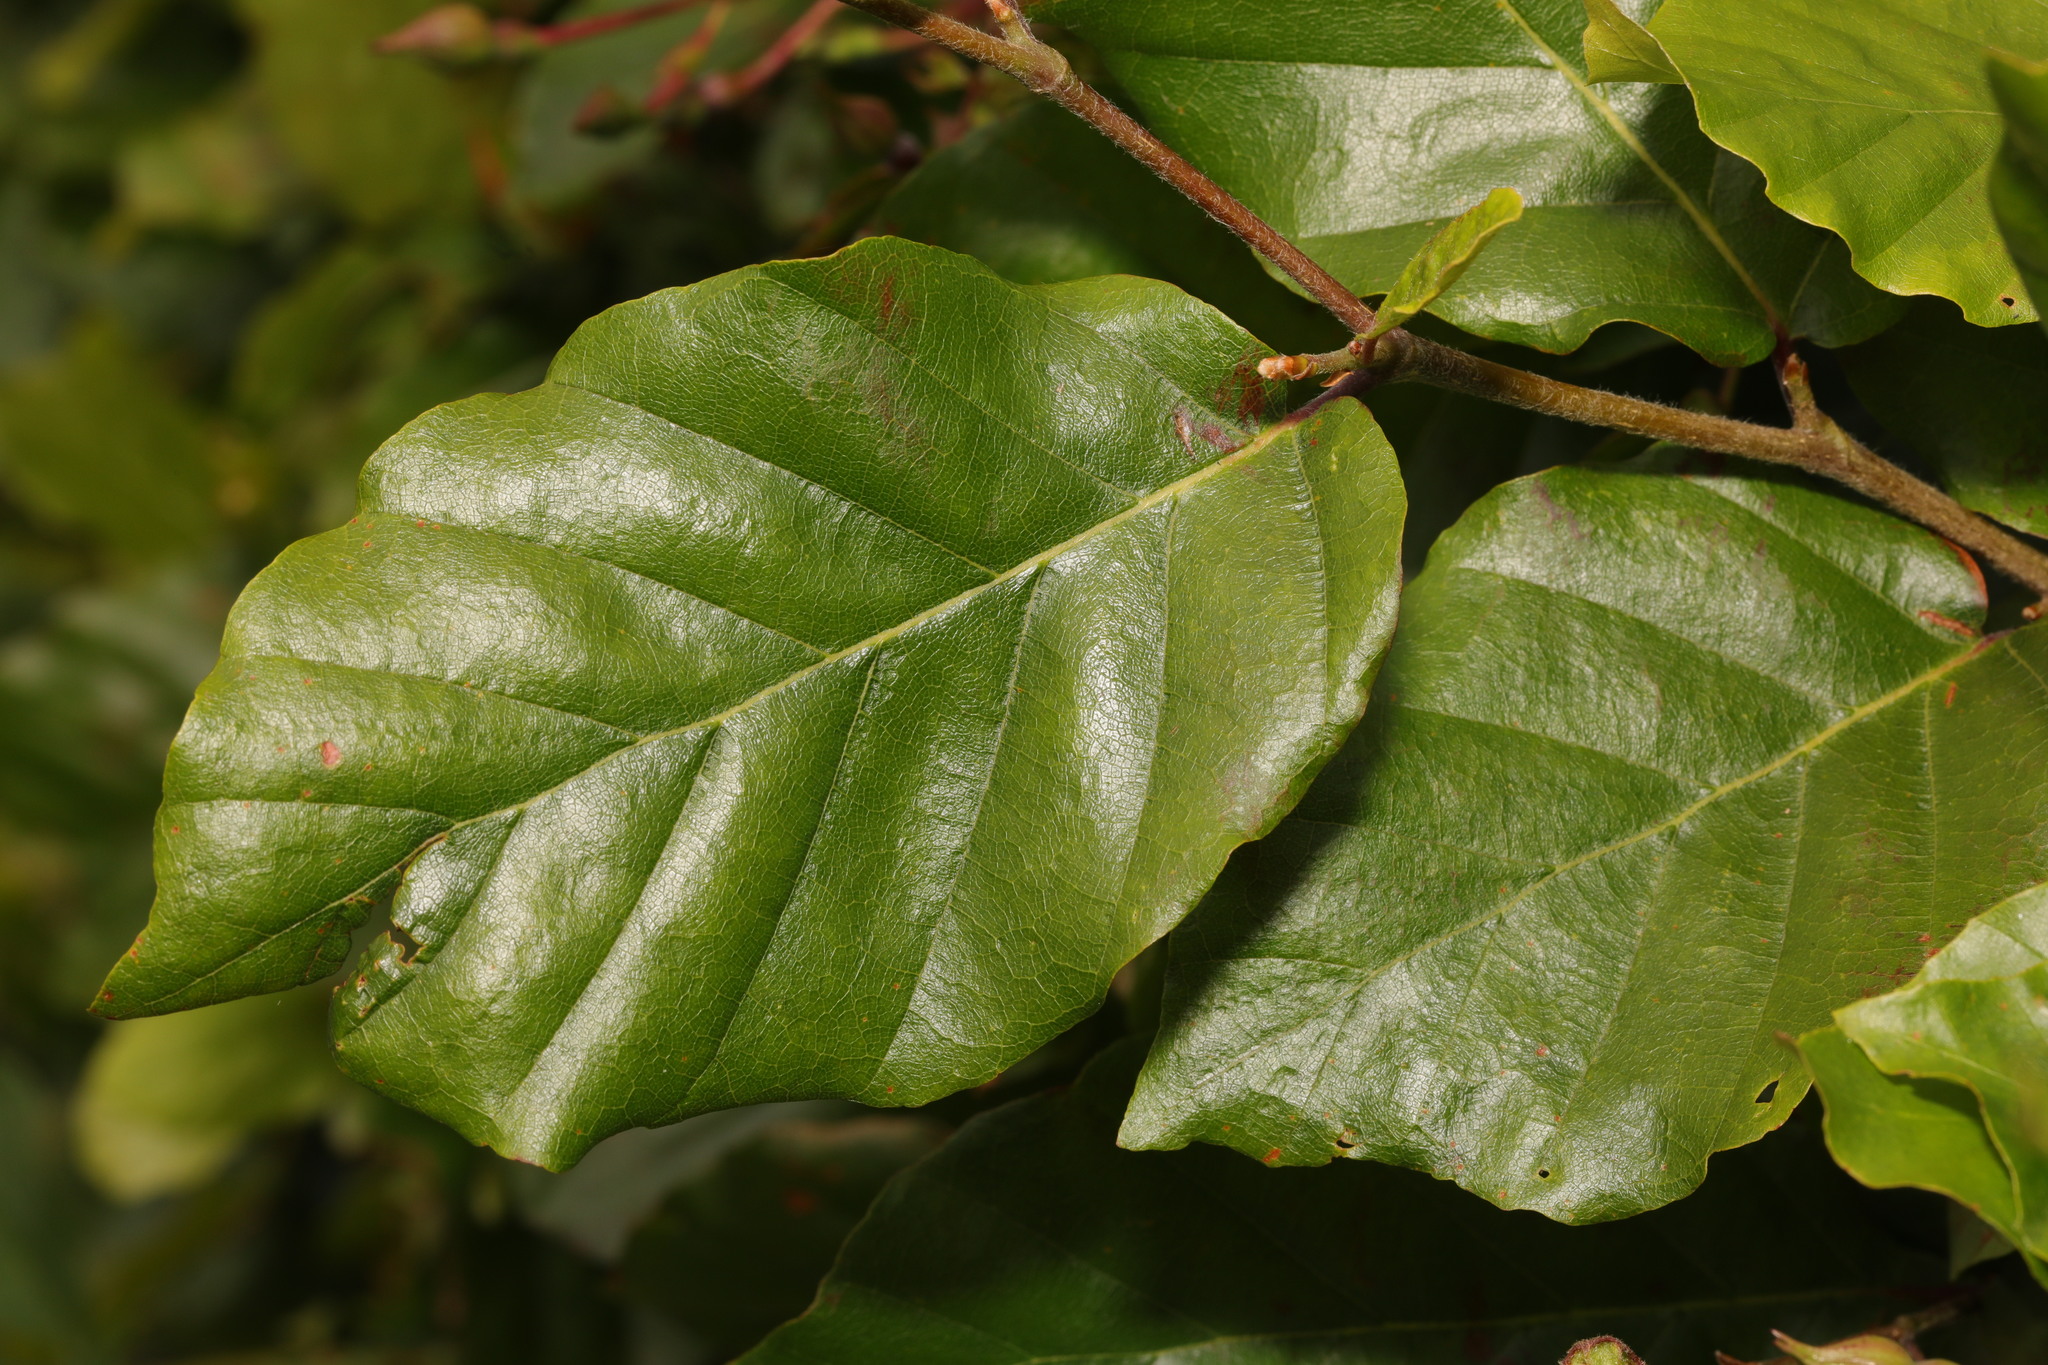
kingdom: Plantae
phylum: Tracheophyta
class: Magnoliopsida
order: Fagales
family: Fagaceae
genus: Fagus
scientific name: Fagus sylvatica
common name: Beech
